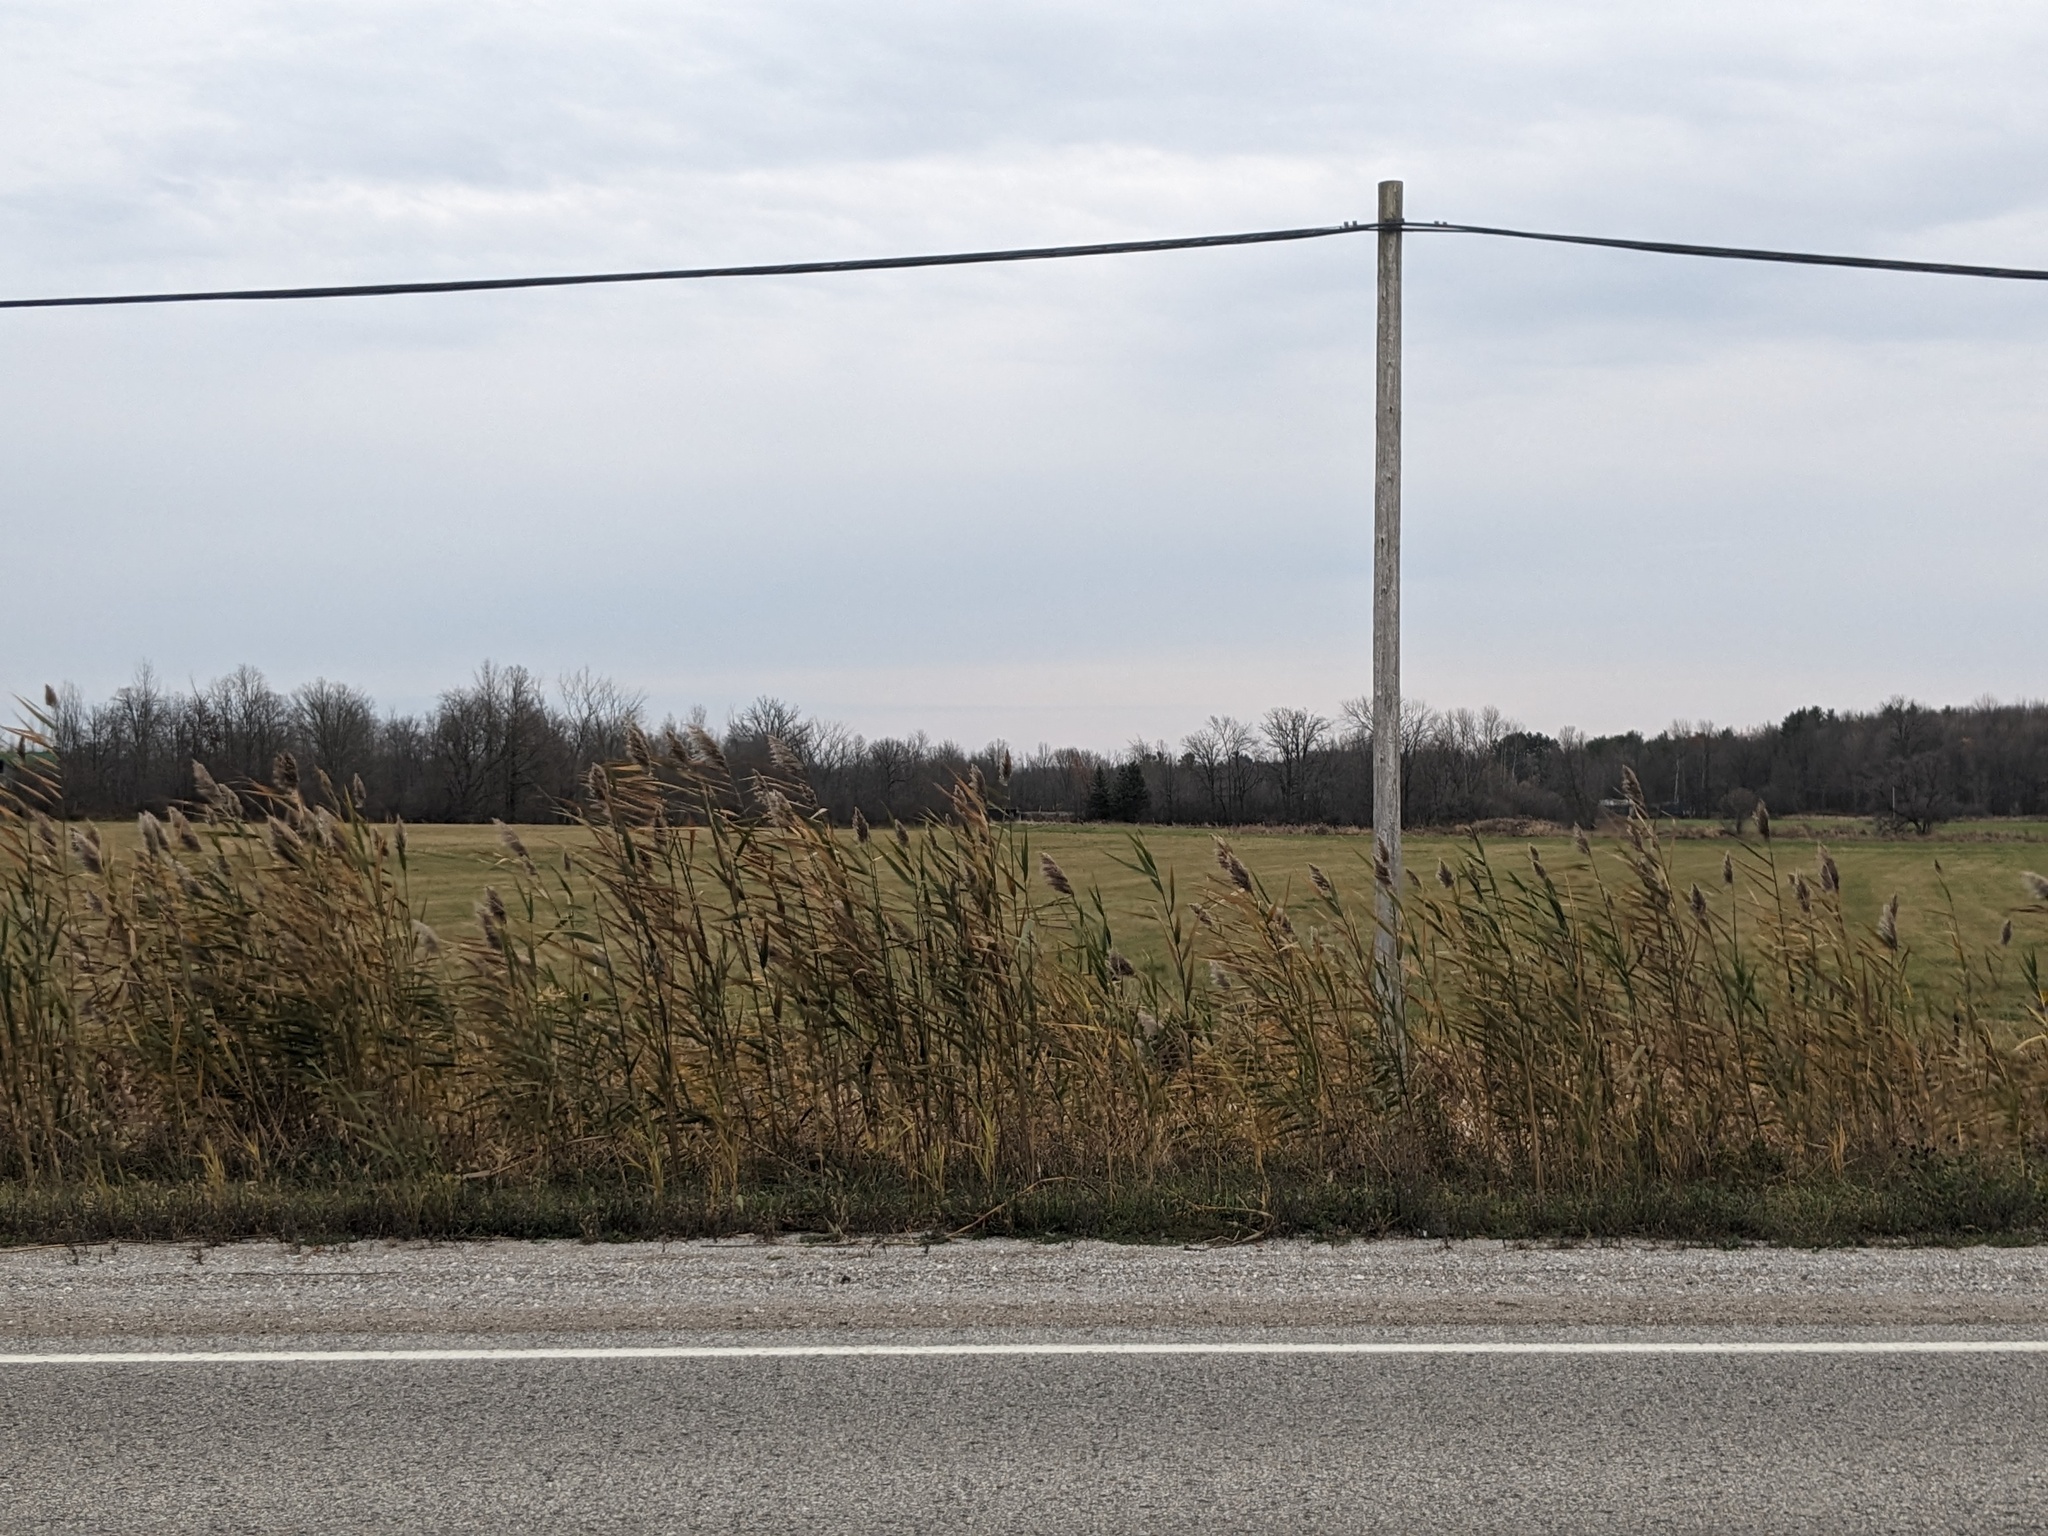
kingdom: Plantae
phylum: Tracheophyta
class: Liliopsida
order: Poales
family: Poaceae
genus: Phragmites
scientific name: Phragmites australis
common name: Common reed
